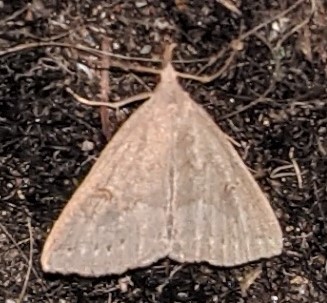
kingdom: Animalia
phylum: Arthropoda
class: Insecta
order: Lepidoptera
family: Erebidae
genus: Macrochilo
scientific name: Macrochilo morbidalis
